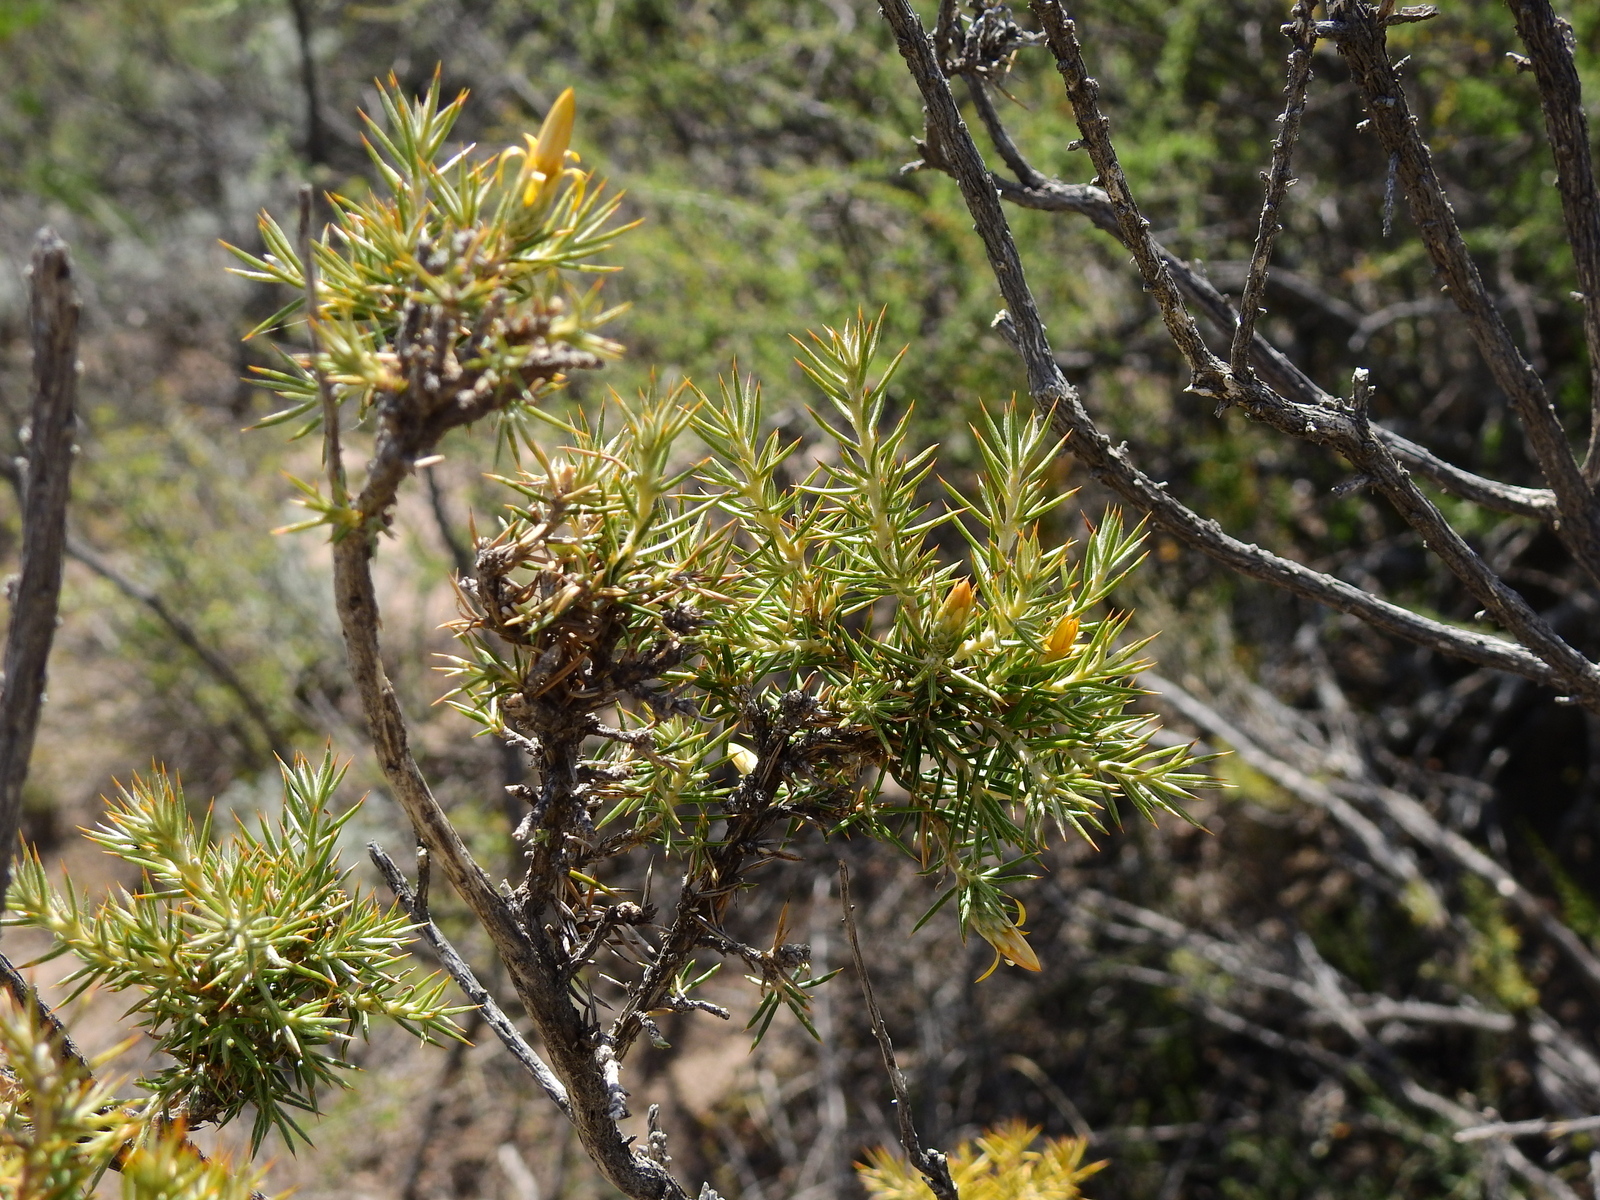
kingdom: Plantae
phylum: Tracheophyta
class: Magnoliopsida
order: Asterales
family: Asteraceae
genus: Chuquiraga
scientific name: Chuquiraga erinacea
